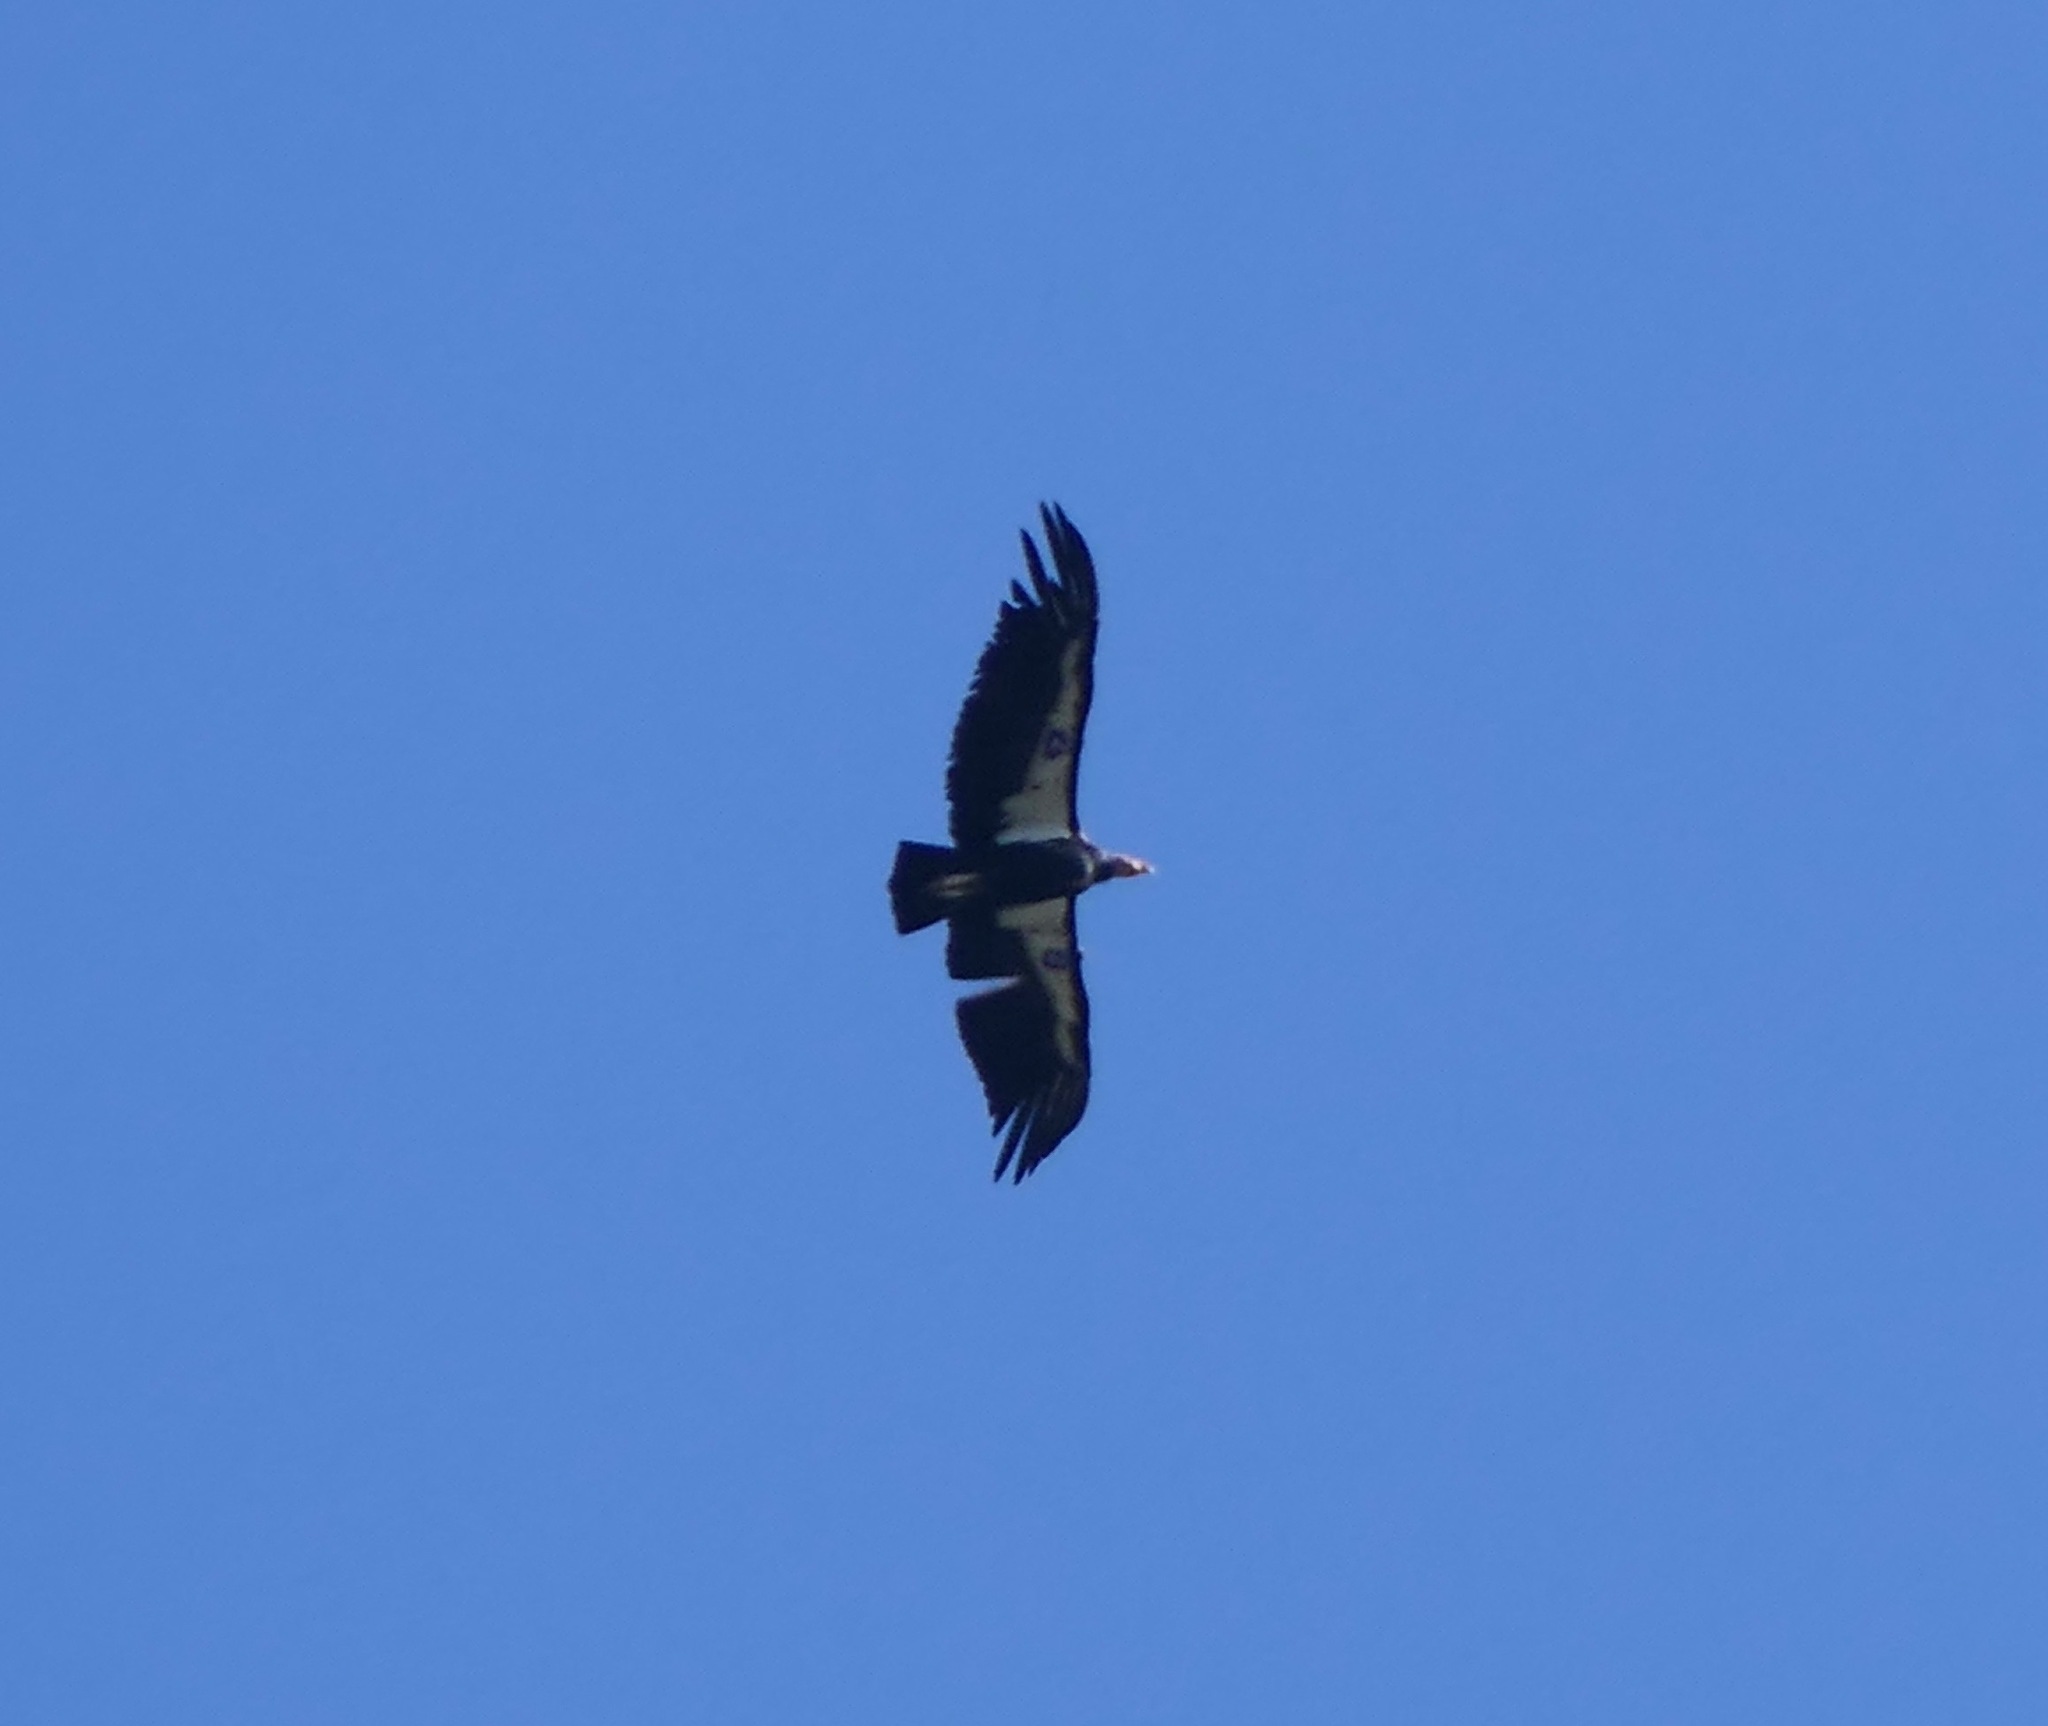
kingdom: Animalia
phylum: Chordata
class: Aves
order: Accipitriformes
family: Cathartidae
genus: Gymnogyps
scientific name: Gymnogyps californianus
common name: California condor
